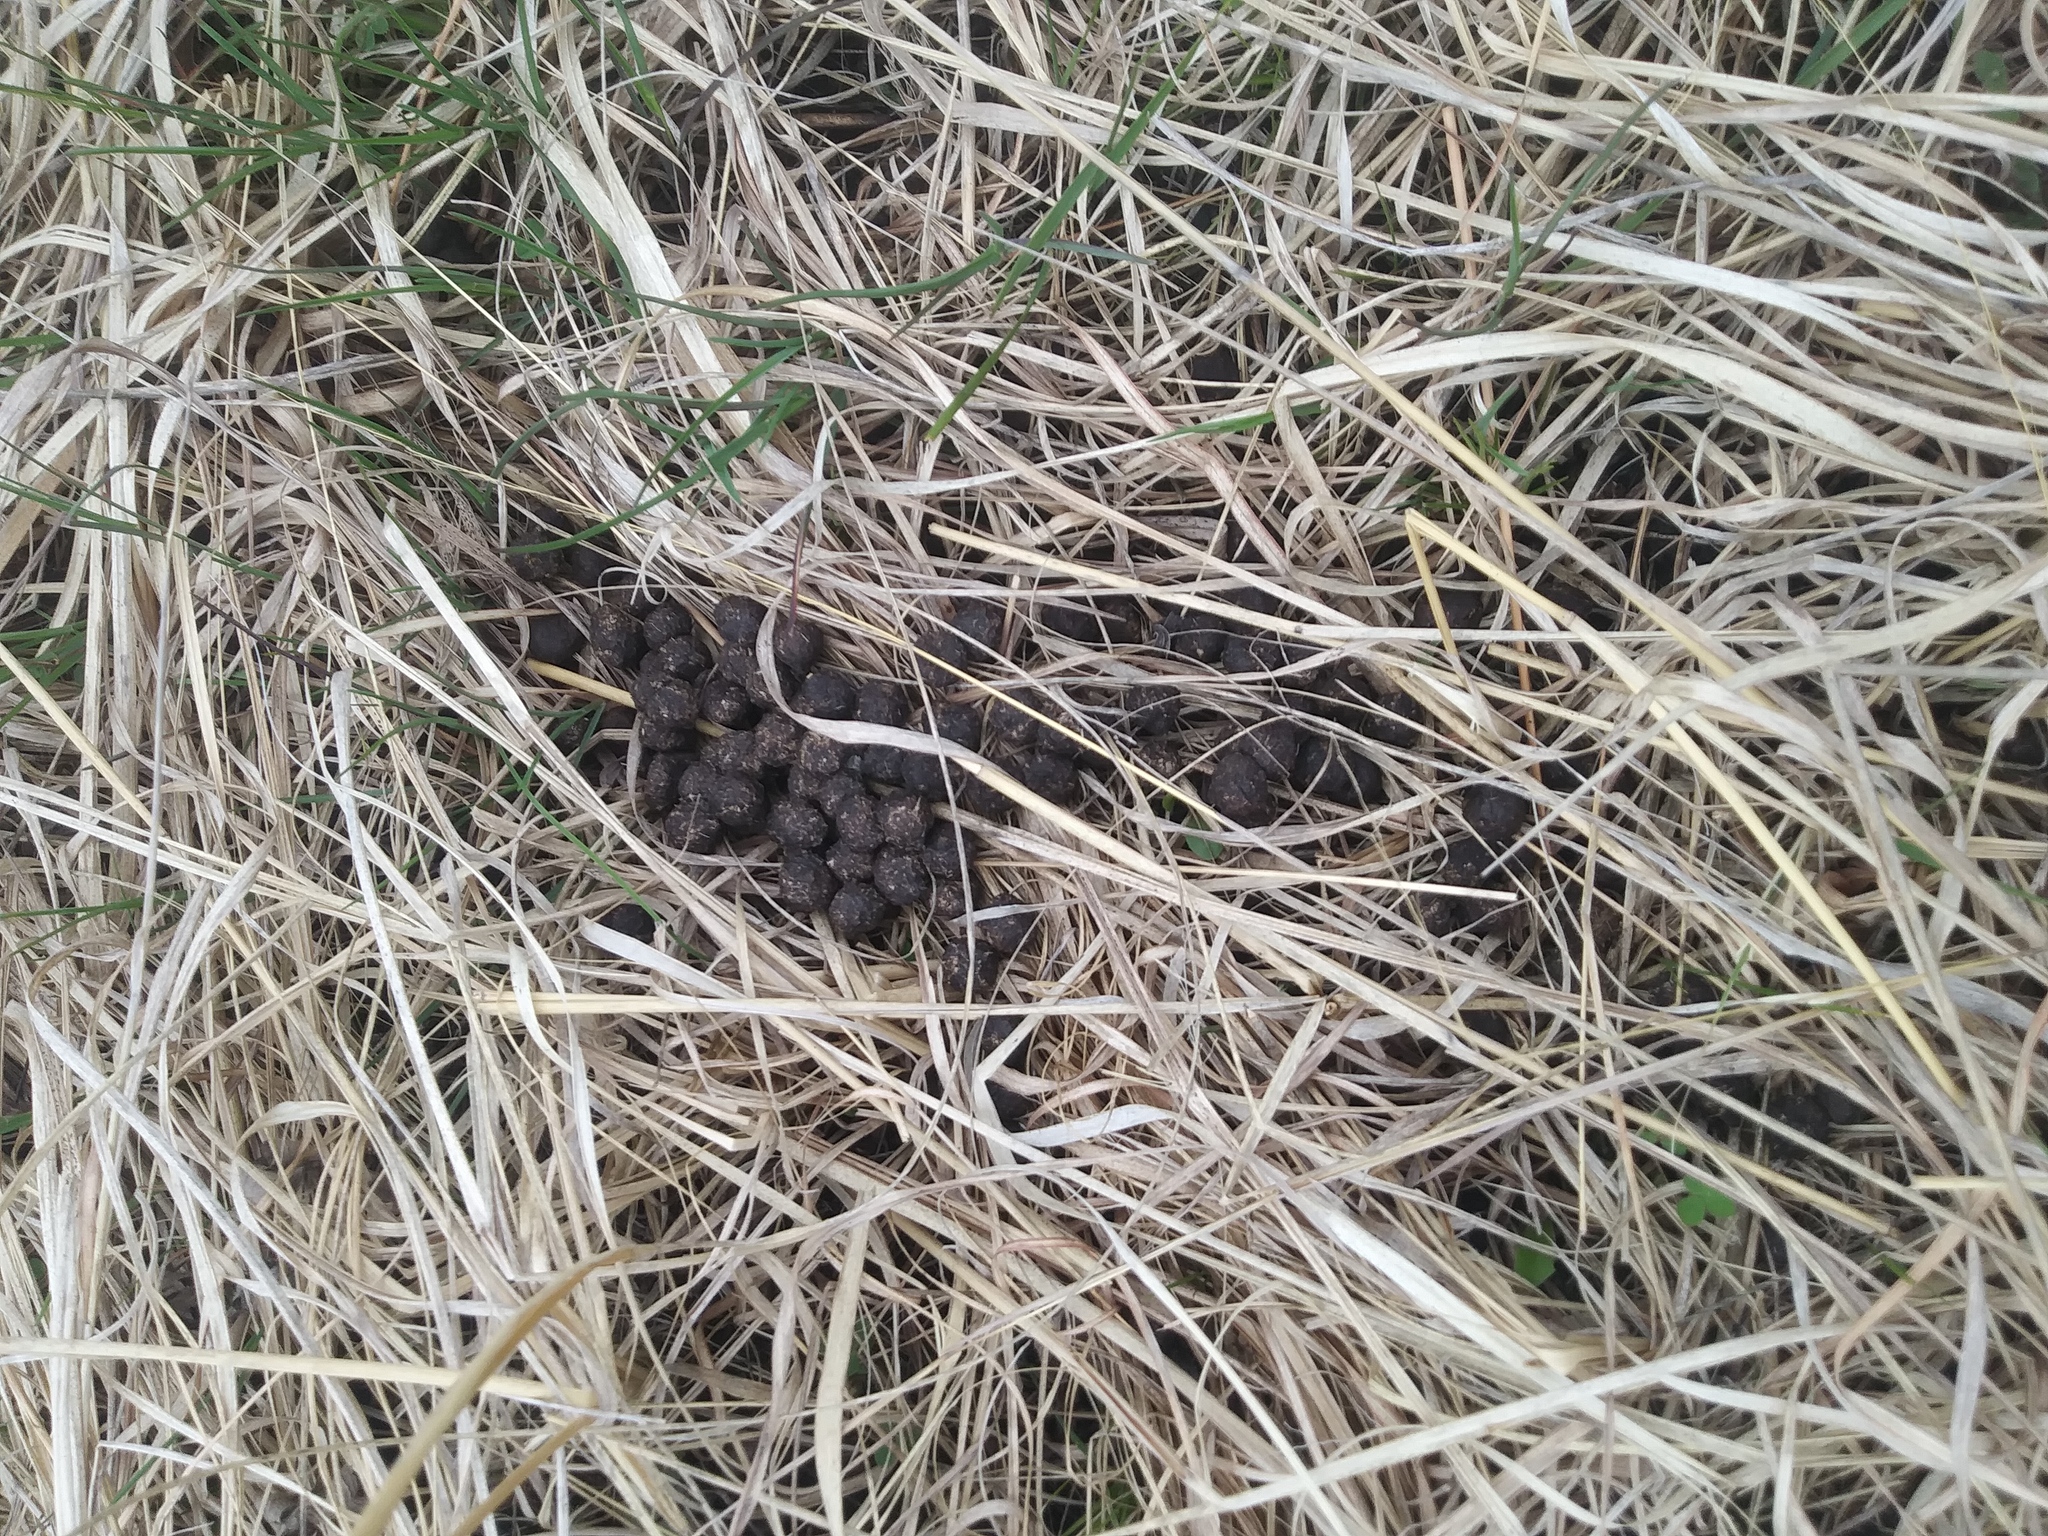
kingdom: Animalia
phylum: Chordata
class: Mammalia
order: Artiodactyla
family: Cervidae
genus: Odocoileus
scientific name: Odocoileus virginianus
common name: White-tailed deer
